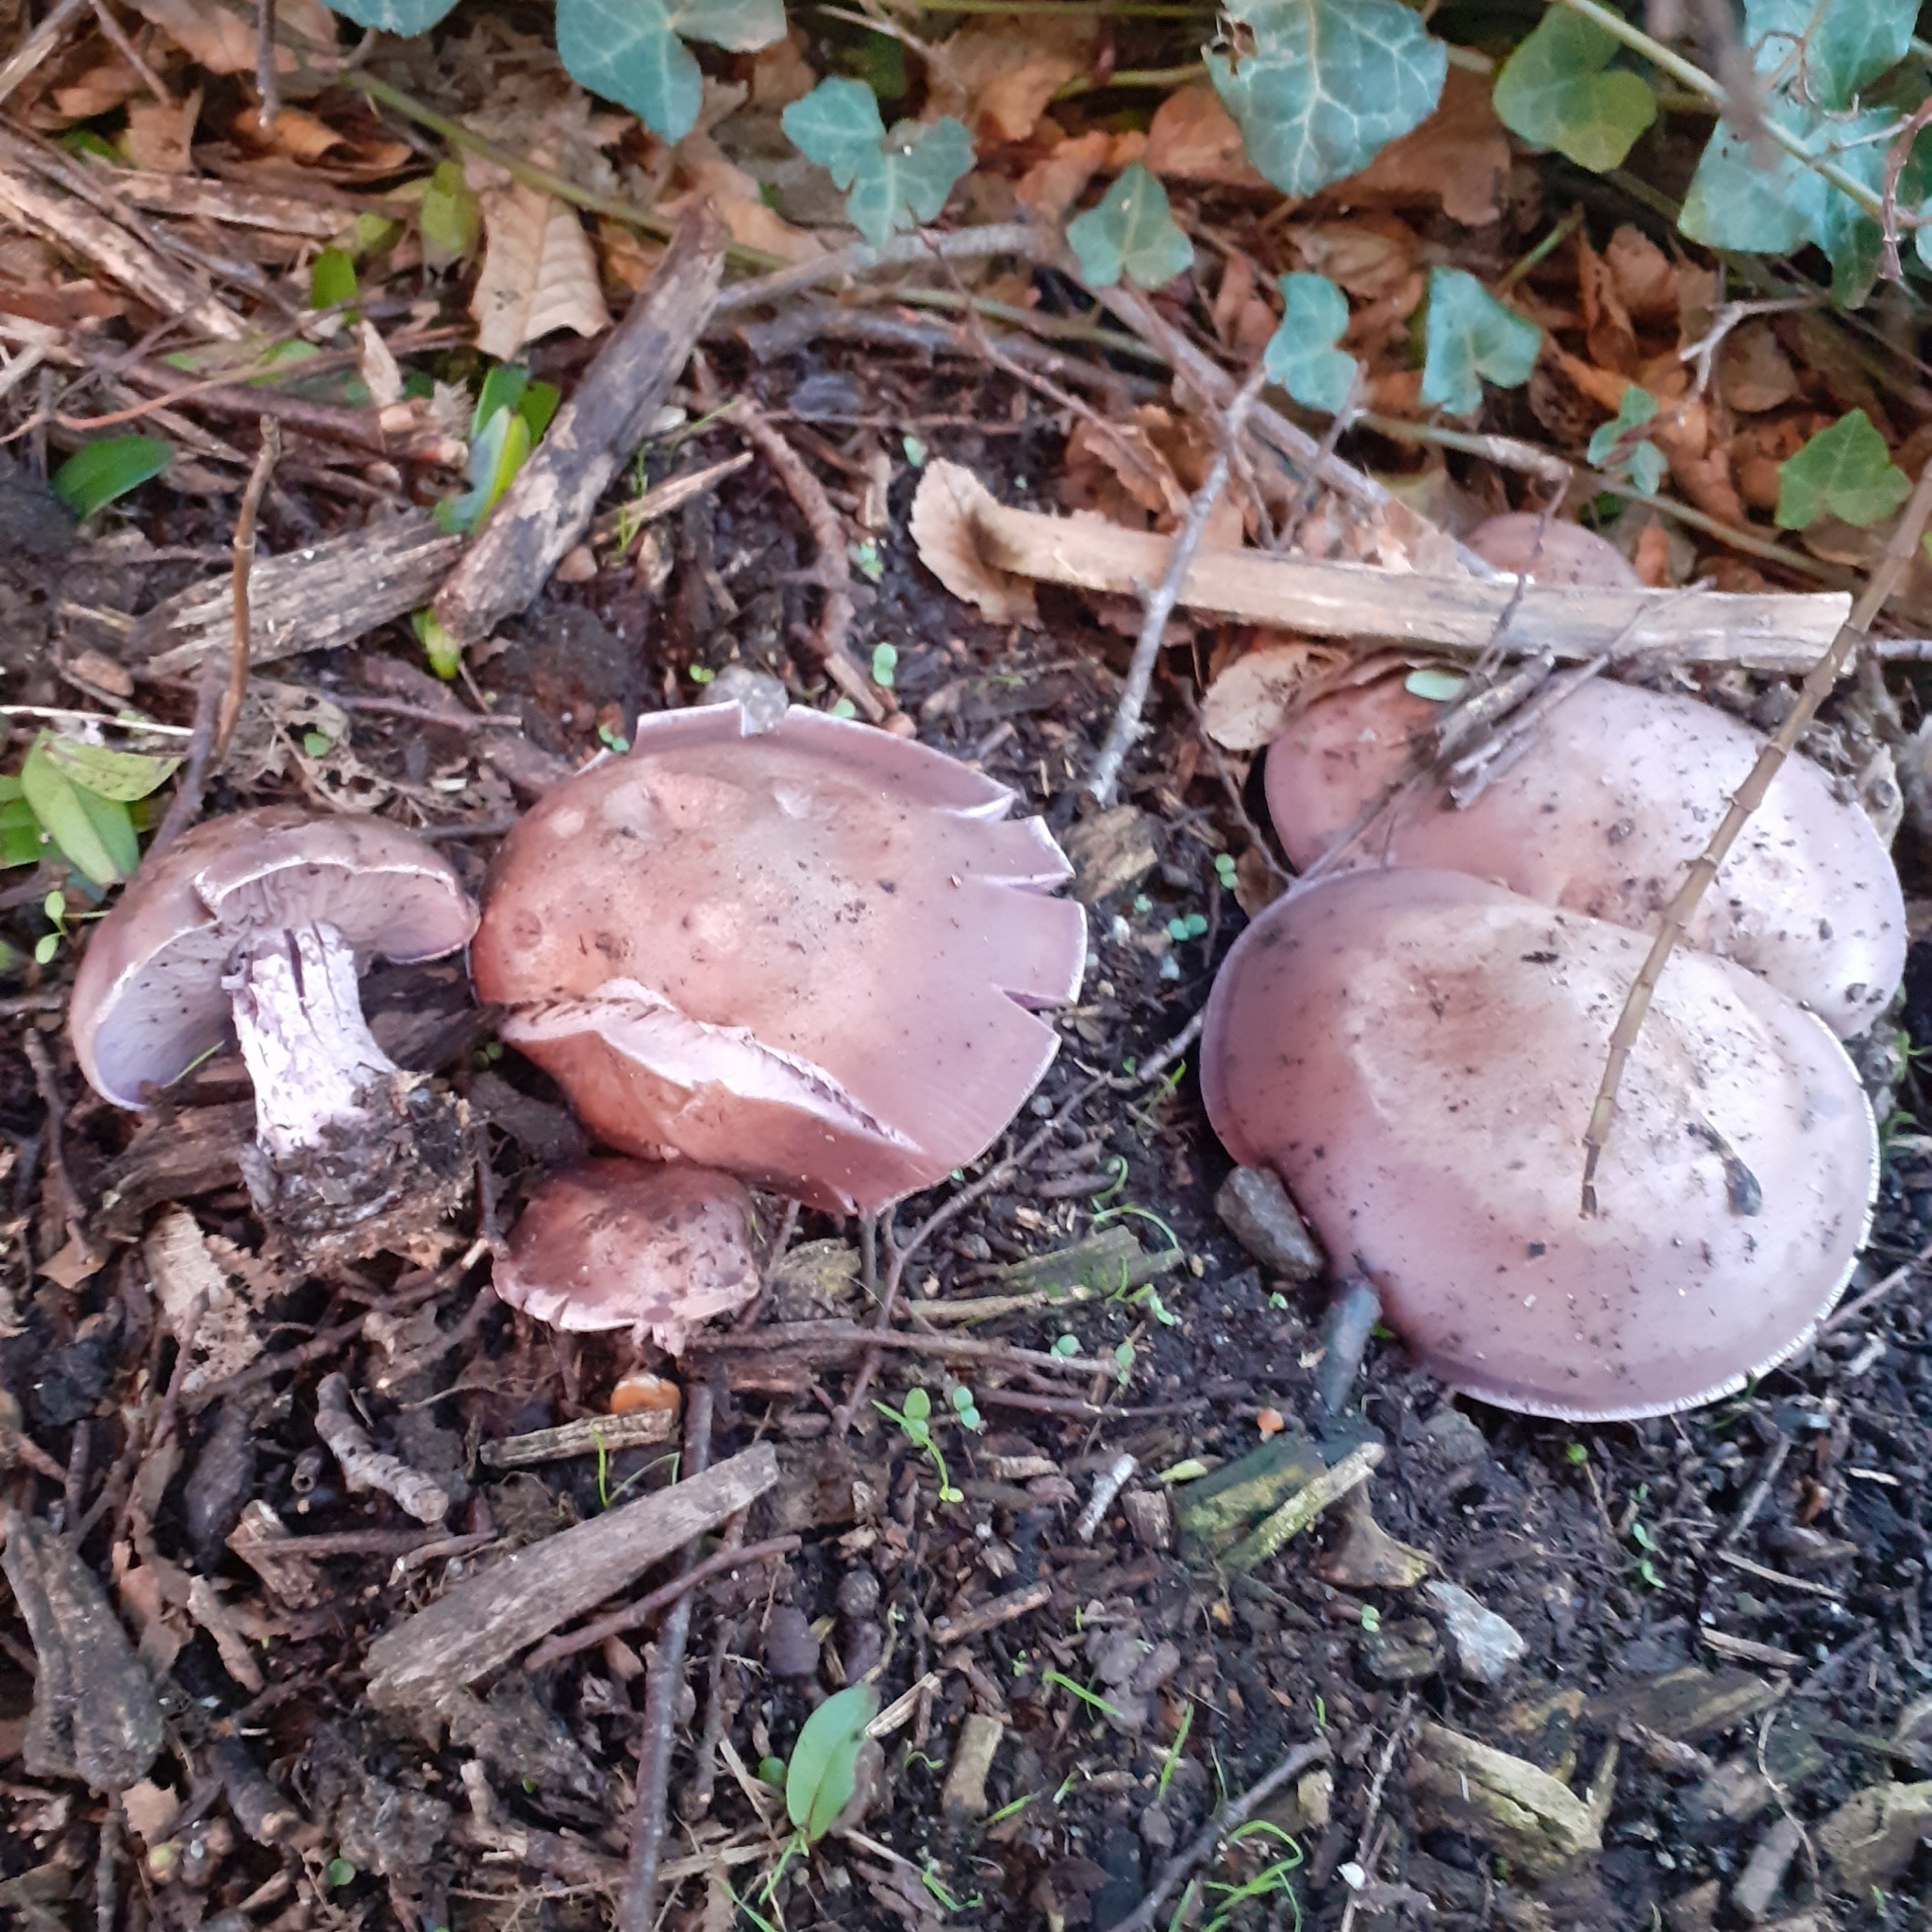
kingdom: Fungi
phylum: Basidiomycota
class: Agaricomycetes
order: Agaricales
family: Tricholomataceae
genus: Collybia
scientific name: Collybia
